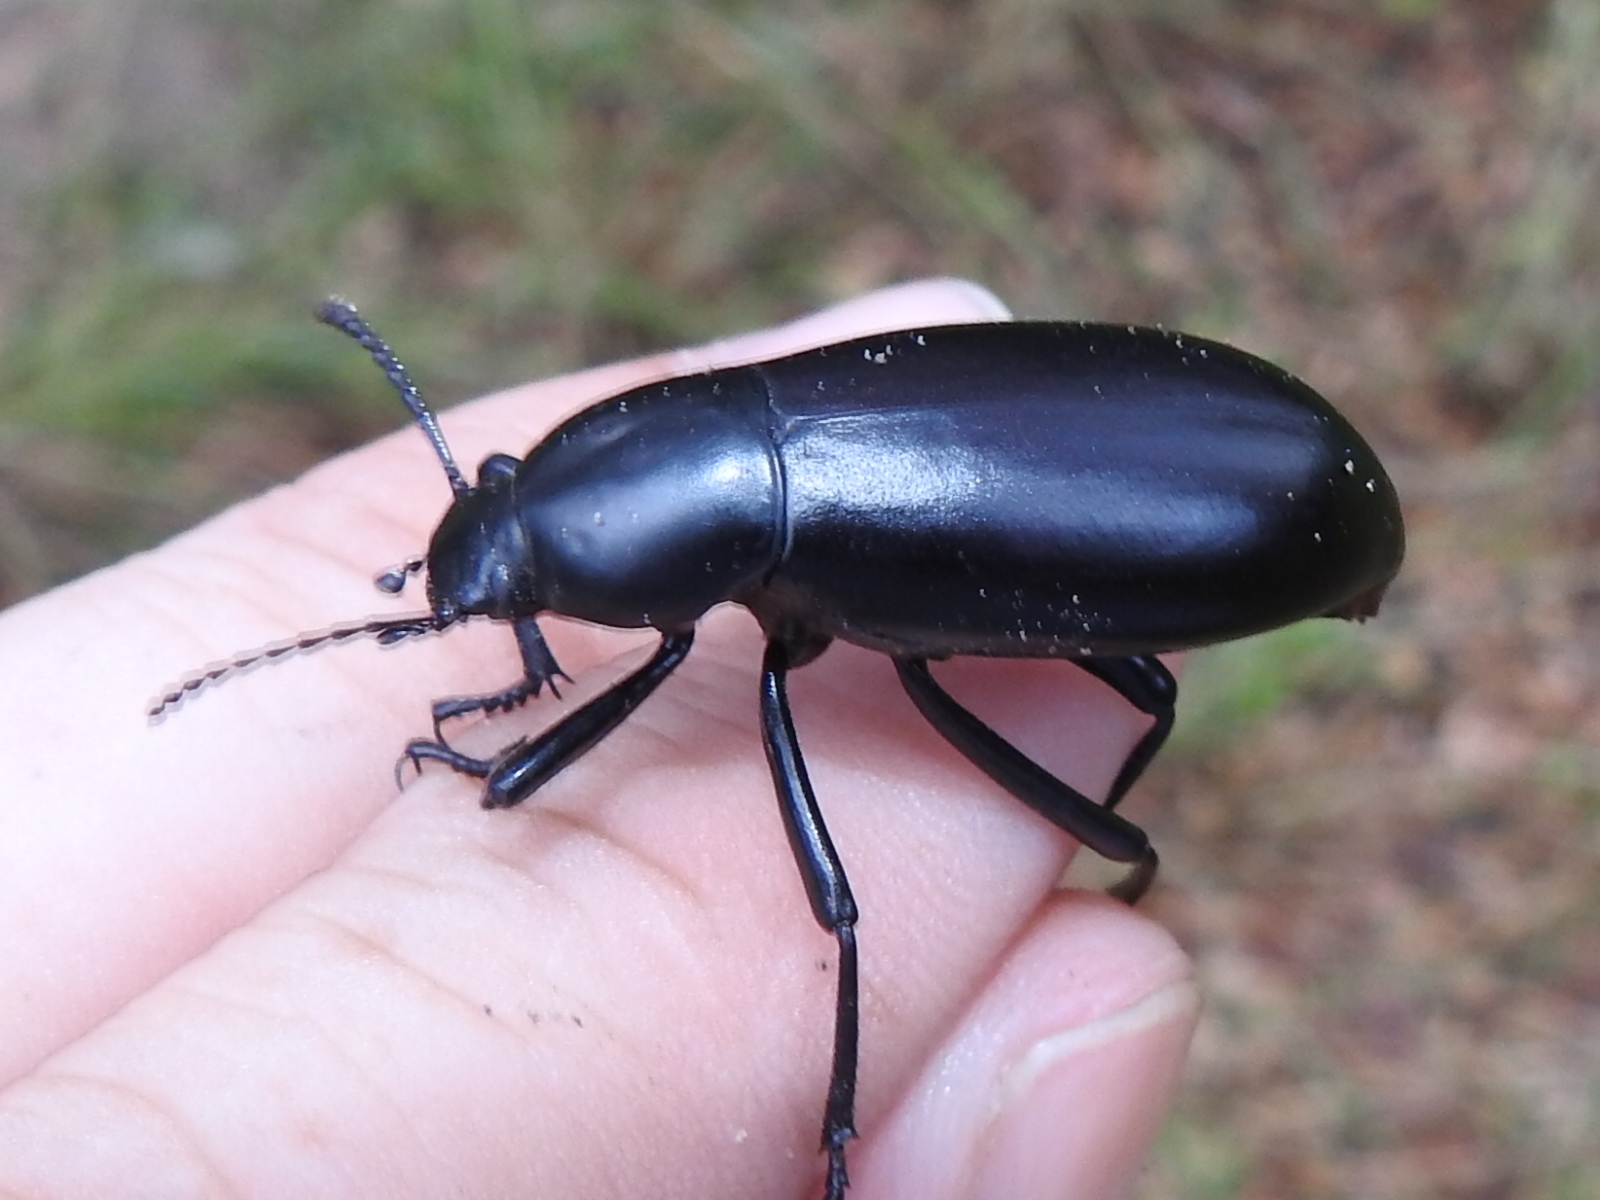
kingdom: Animalia
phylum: Arthropoda
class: Insecta
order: Coleoptera
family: Tenebrionidae
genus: Eleodes
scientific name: Eleodes longicollis
